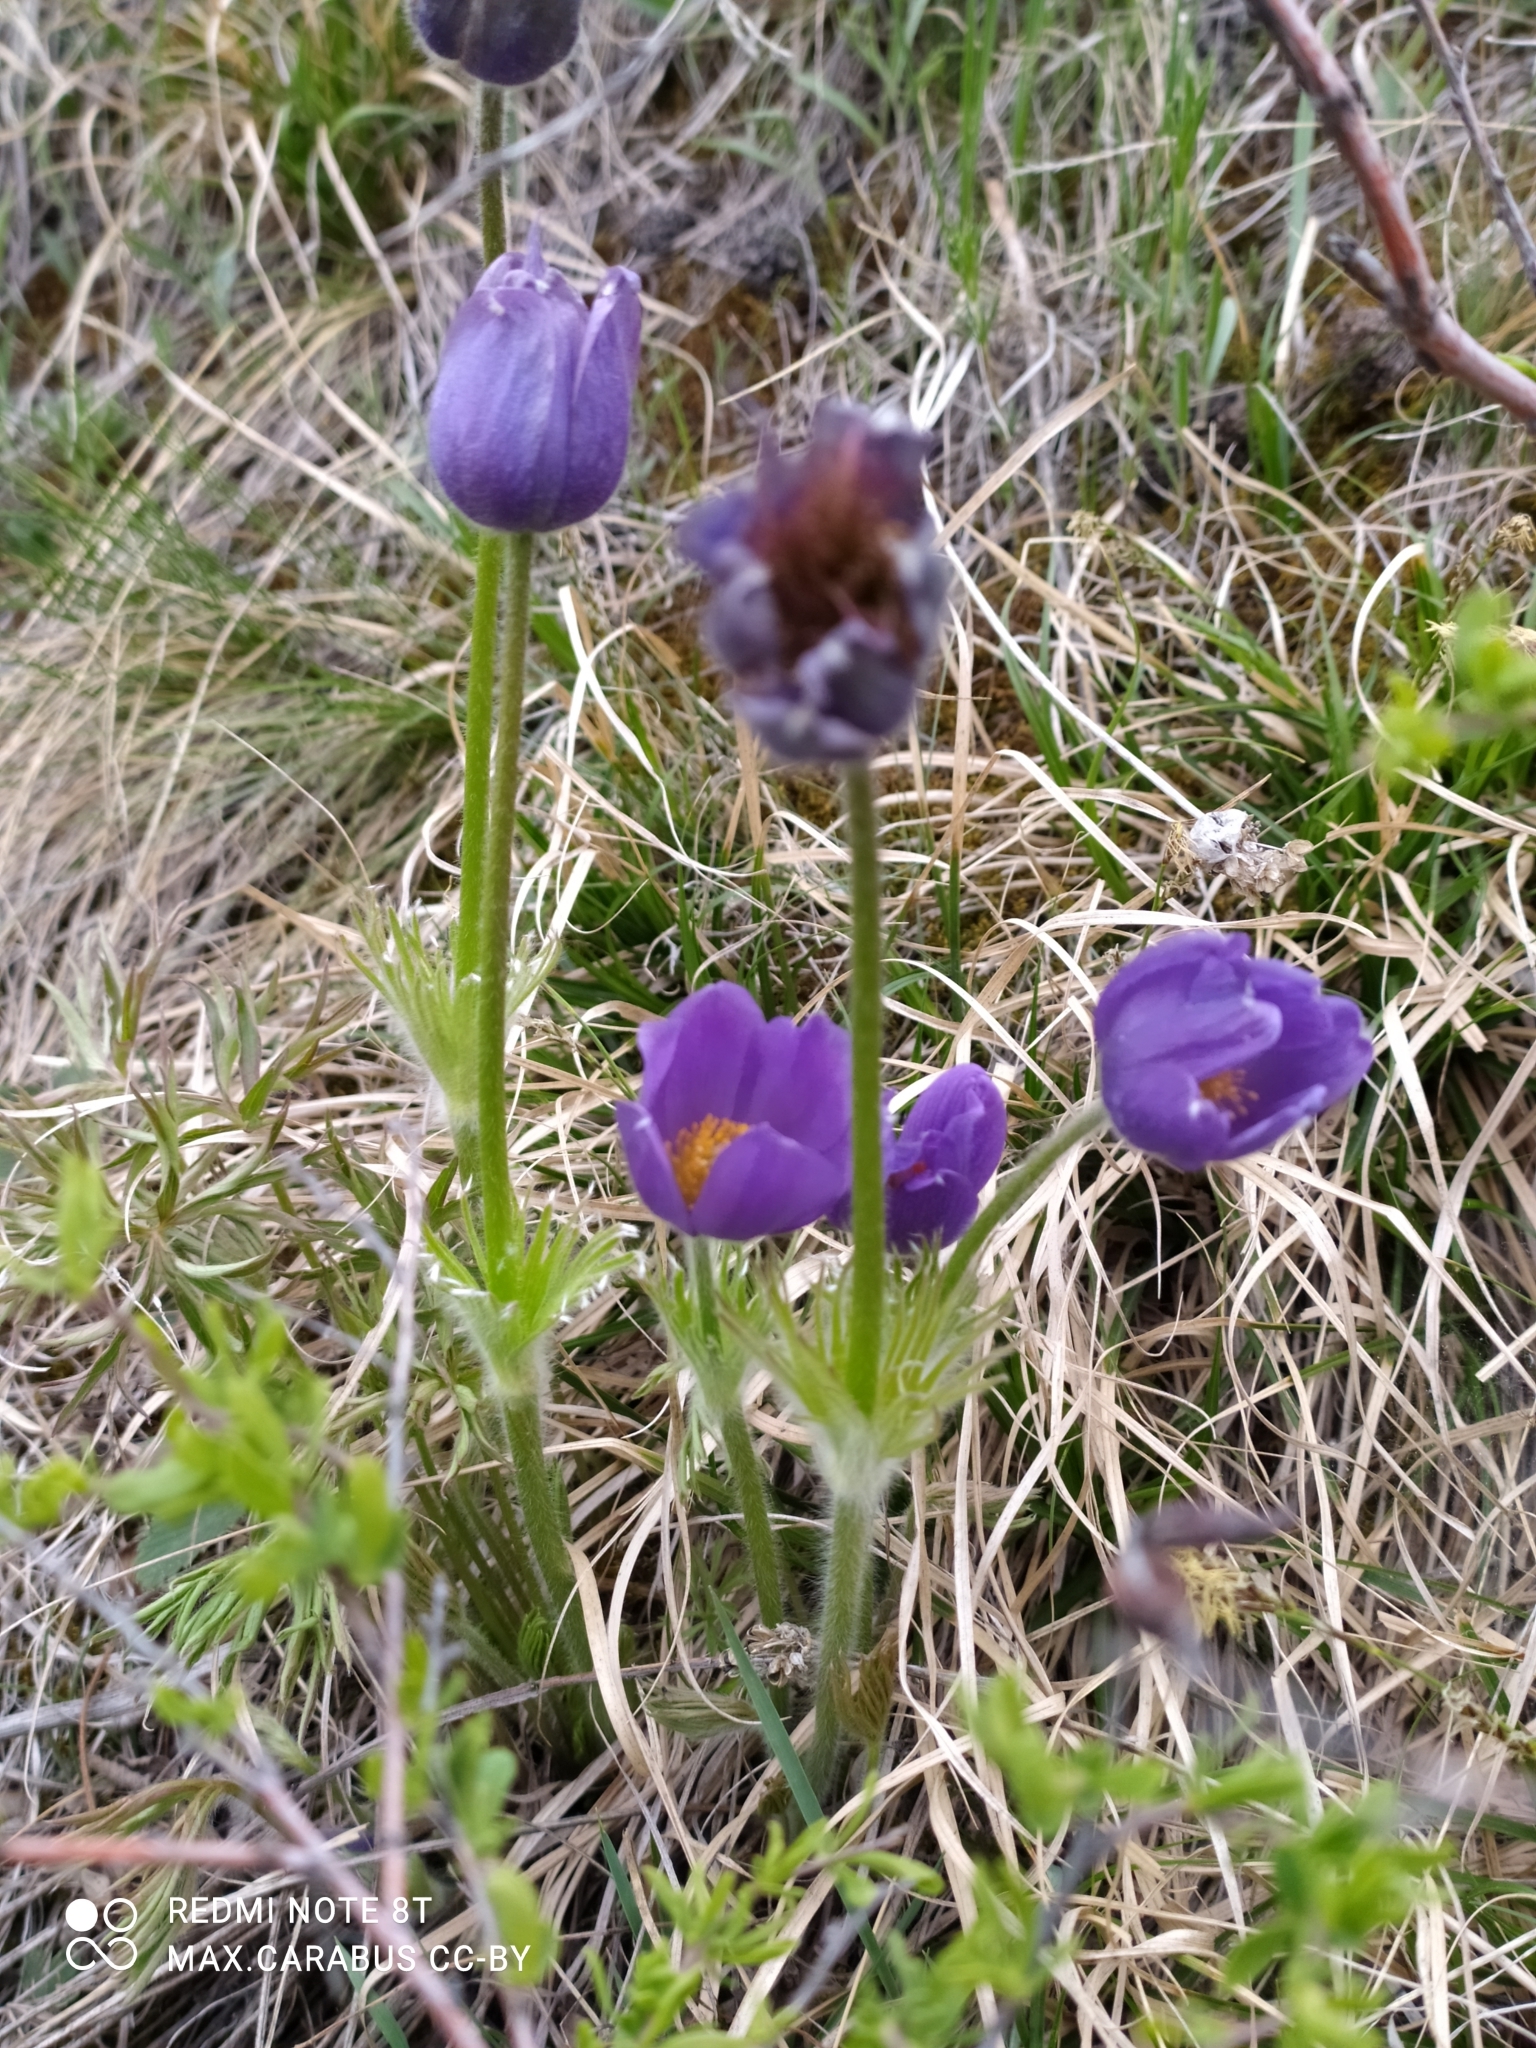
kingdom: Plantae
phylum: Tracheophyta
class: Magnoliopsida
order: Ranunculales
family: Ranunculaceae
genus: Pulsatilla
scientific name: Pulsatilla patens
